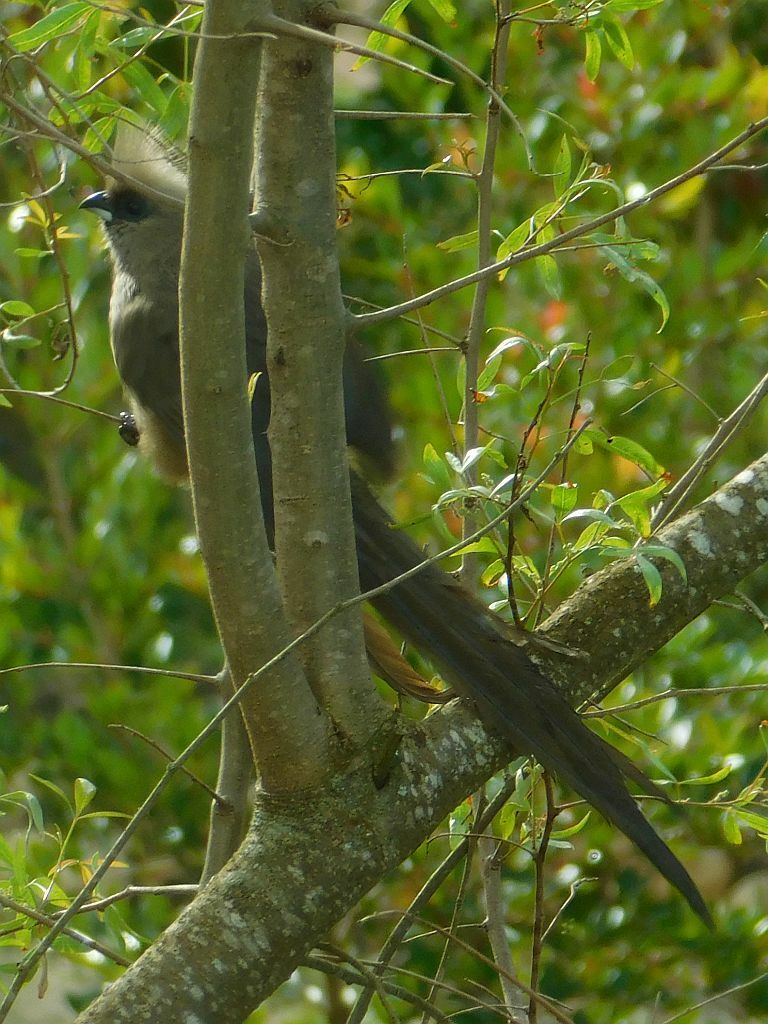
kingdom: Animalia
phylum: Chordata
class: Aves
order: Coliiformes
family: Coliidae
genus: Colius
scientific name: Colius striatus
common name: Speckled mousebird
